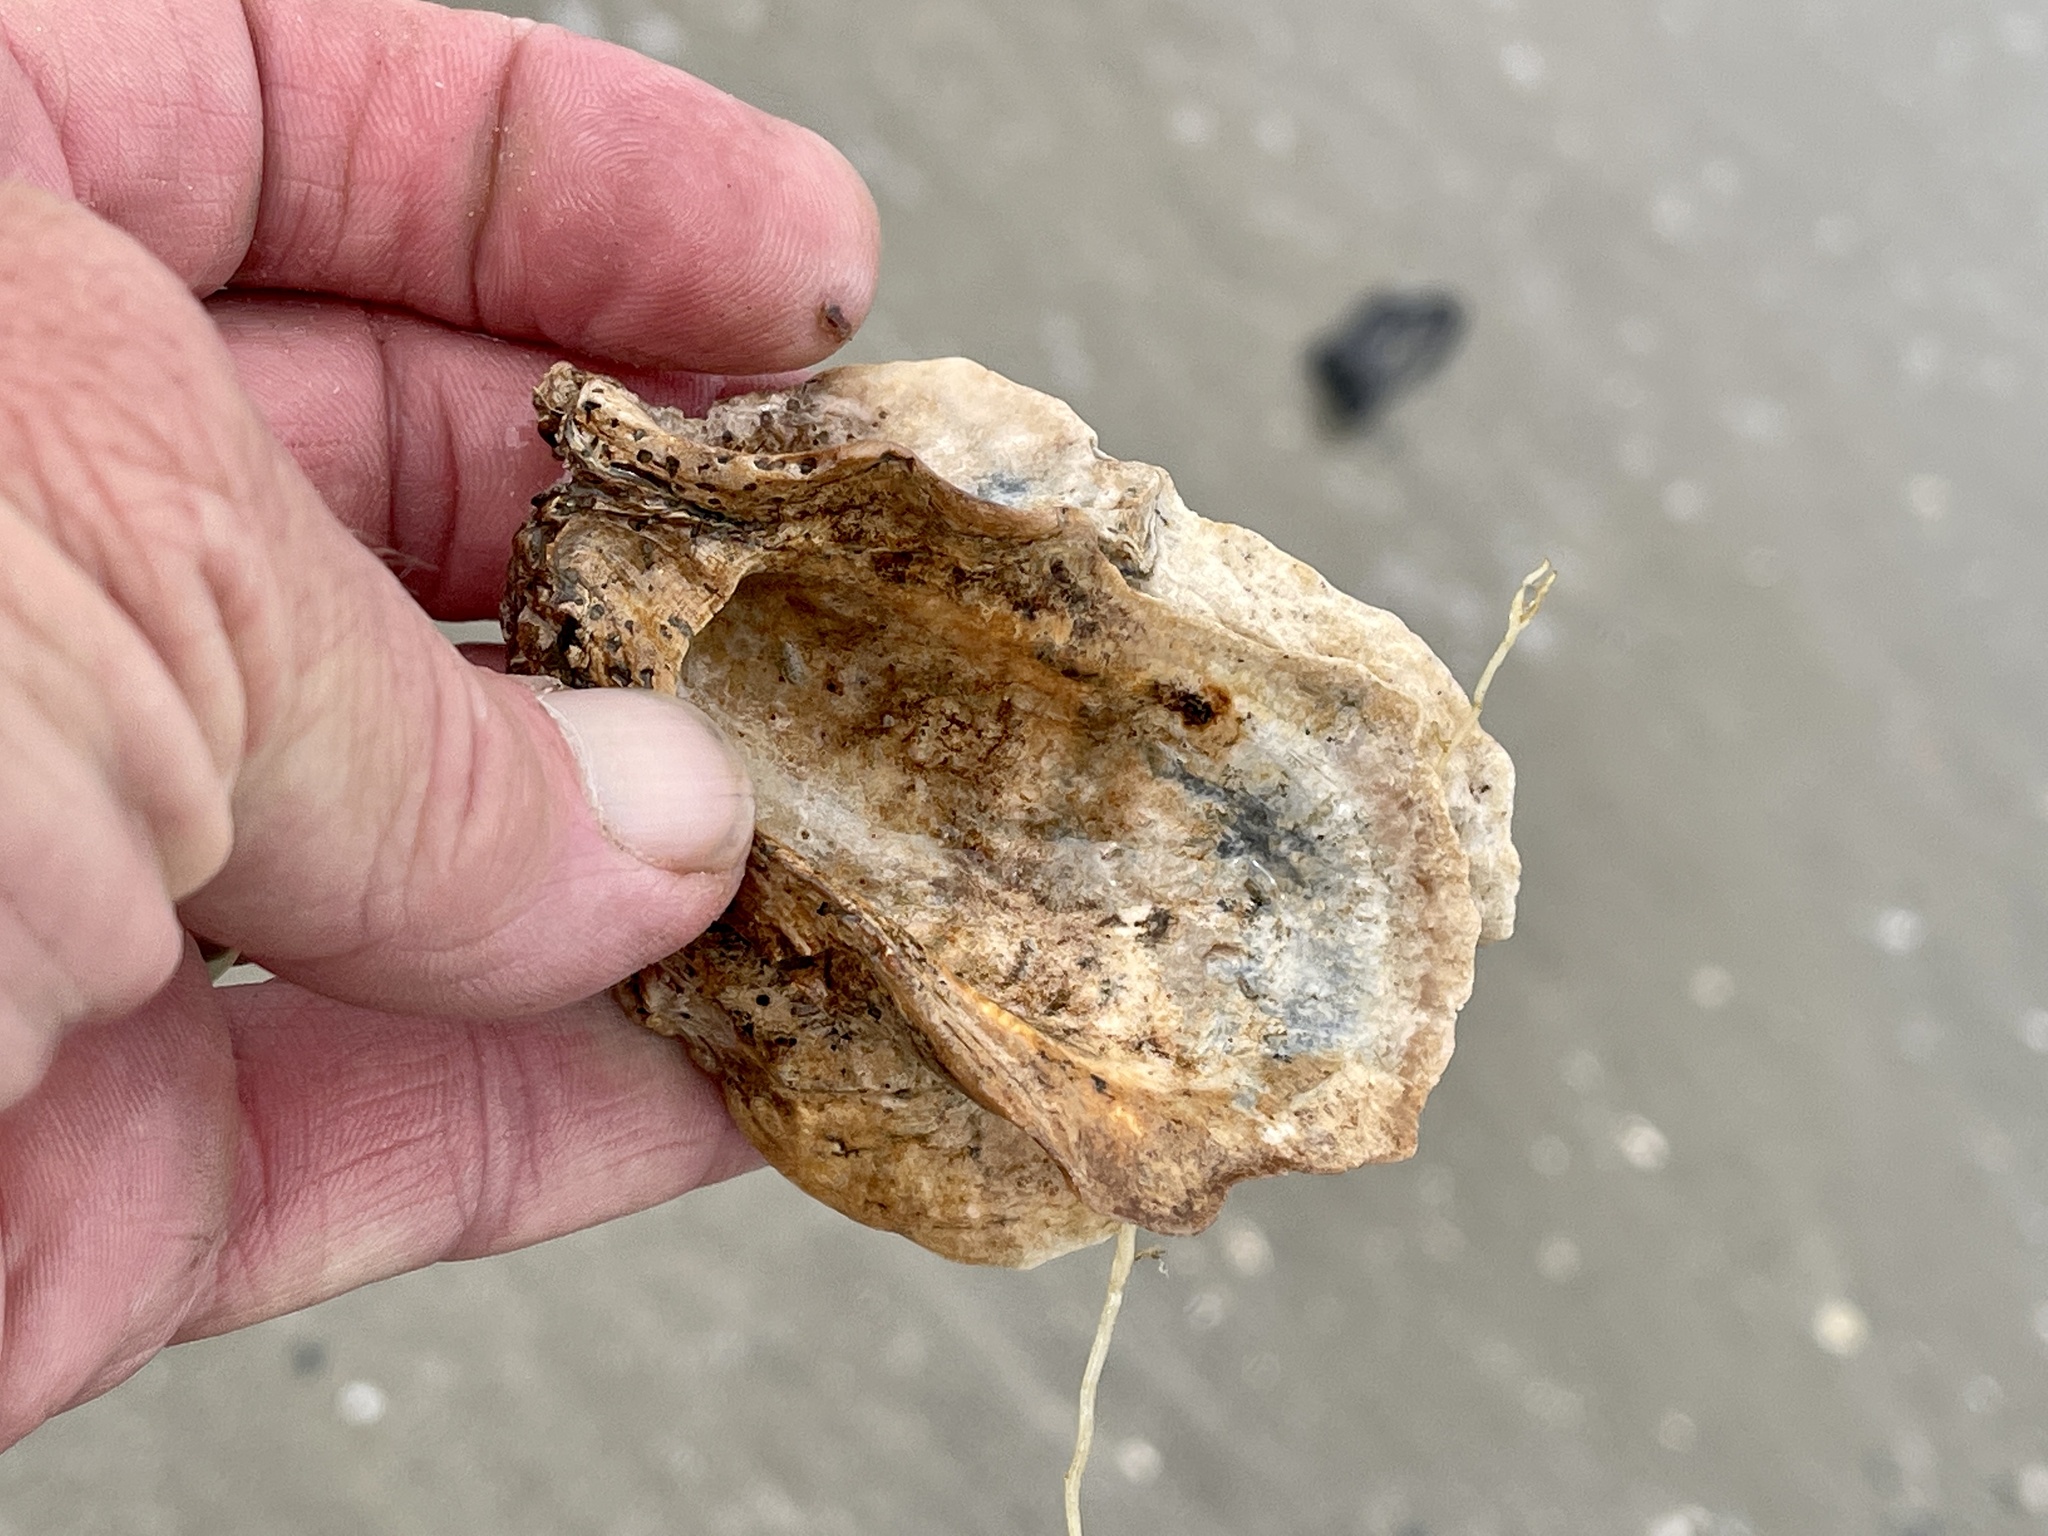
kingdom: Animalia
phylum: Mollusca
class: Bivalvia
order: Ostreida
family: Ostreidae
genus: Crassostrea
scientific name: Crassostrea virginica
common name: American oyster
